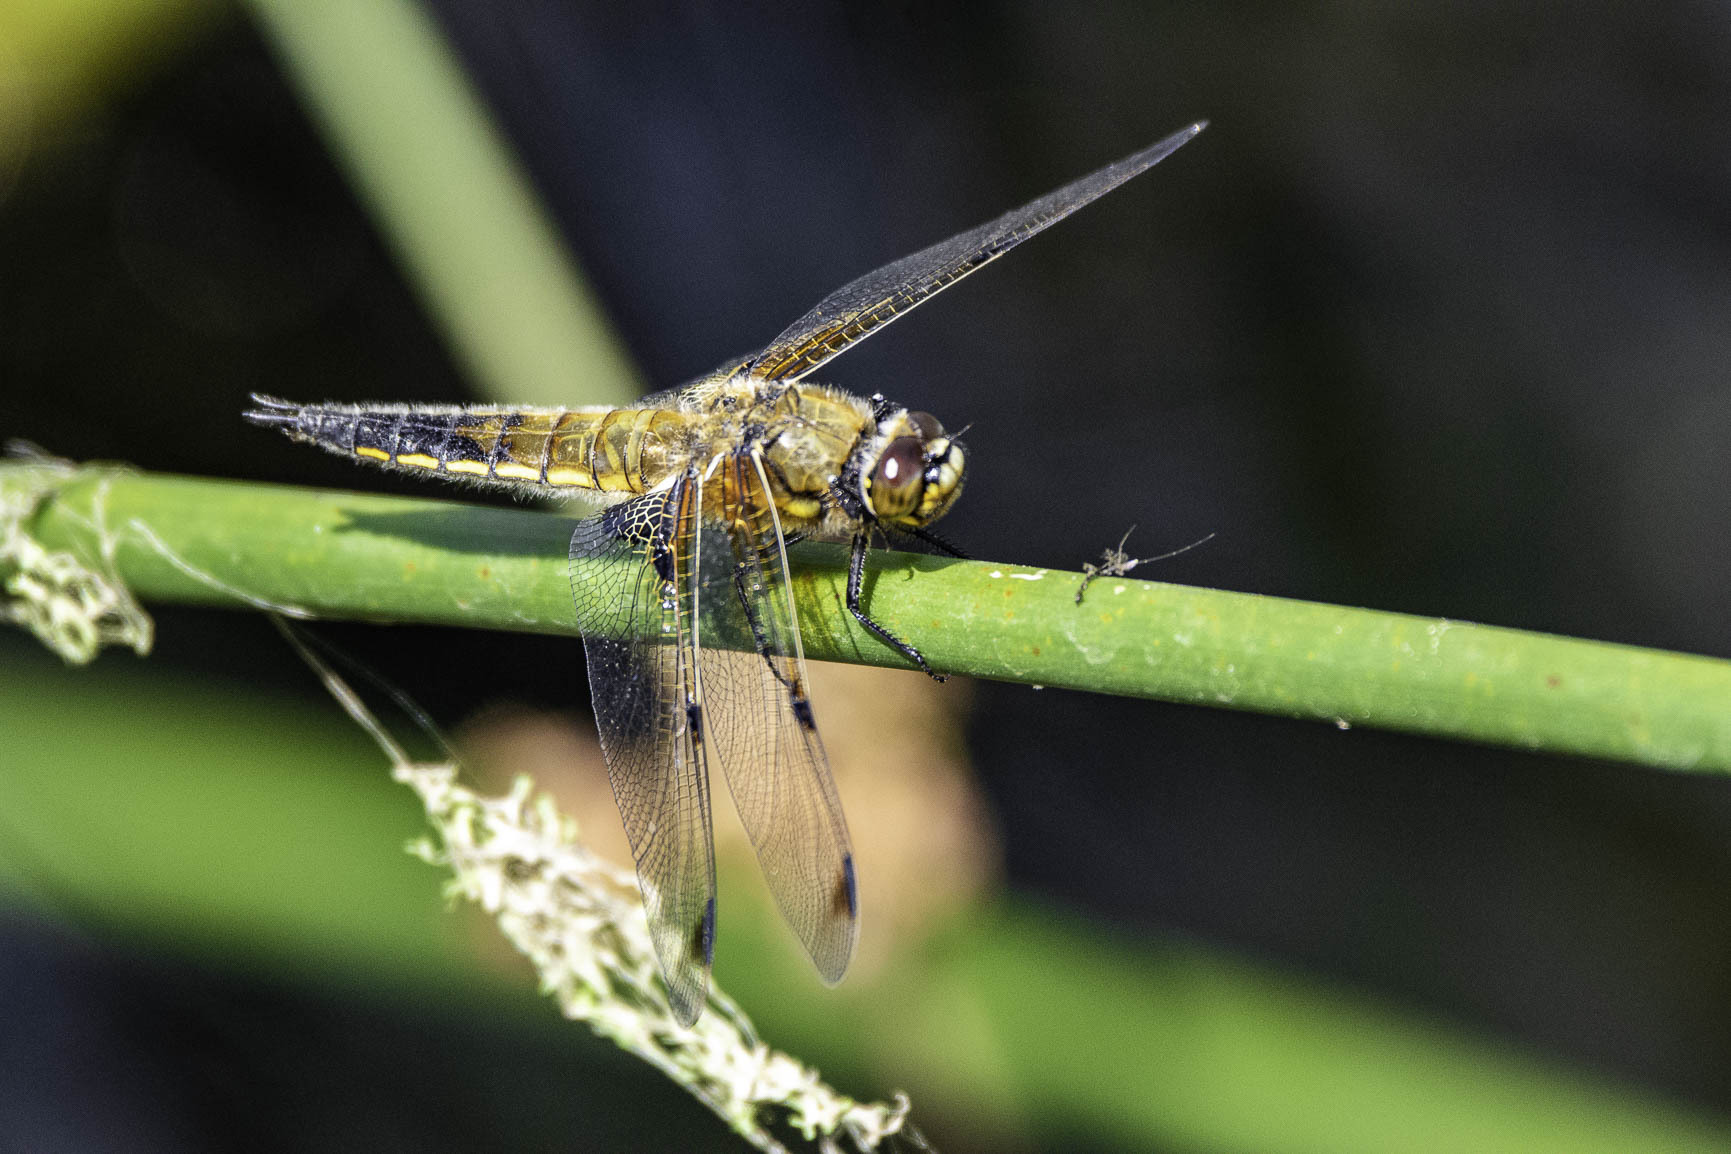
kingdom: Animalia
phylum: Arthropoda
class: Insecta
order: Odonata
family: Libellulidae
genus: Libellula
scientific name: Libellula quadrimaculata
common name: Four-spotted chaser
